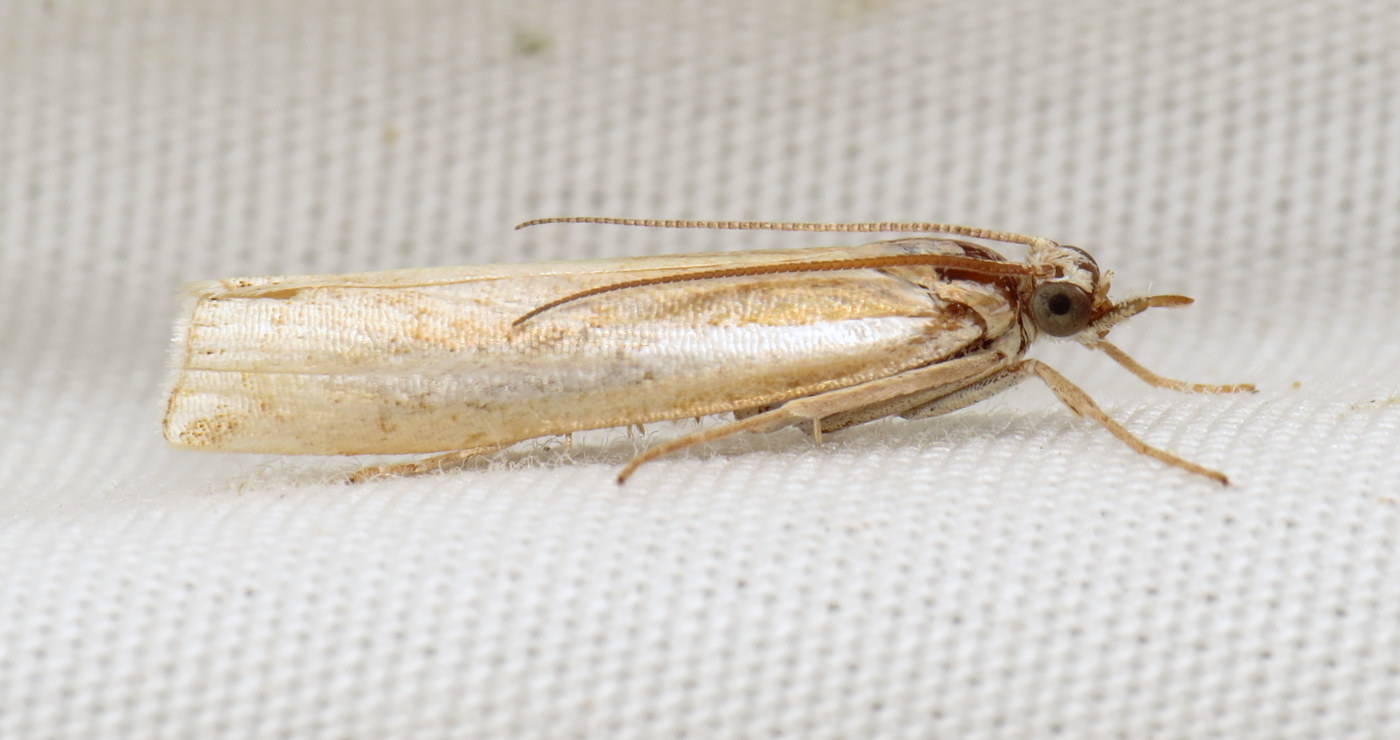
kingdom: Animalia
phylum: Arthropoda
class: Insecta
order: Lepidoptera
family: Crambidae
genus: Crambus
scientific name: Crambus praefectellus
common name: Common grass-veneer
